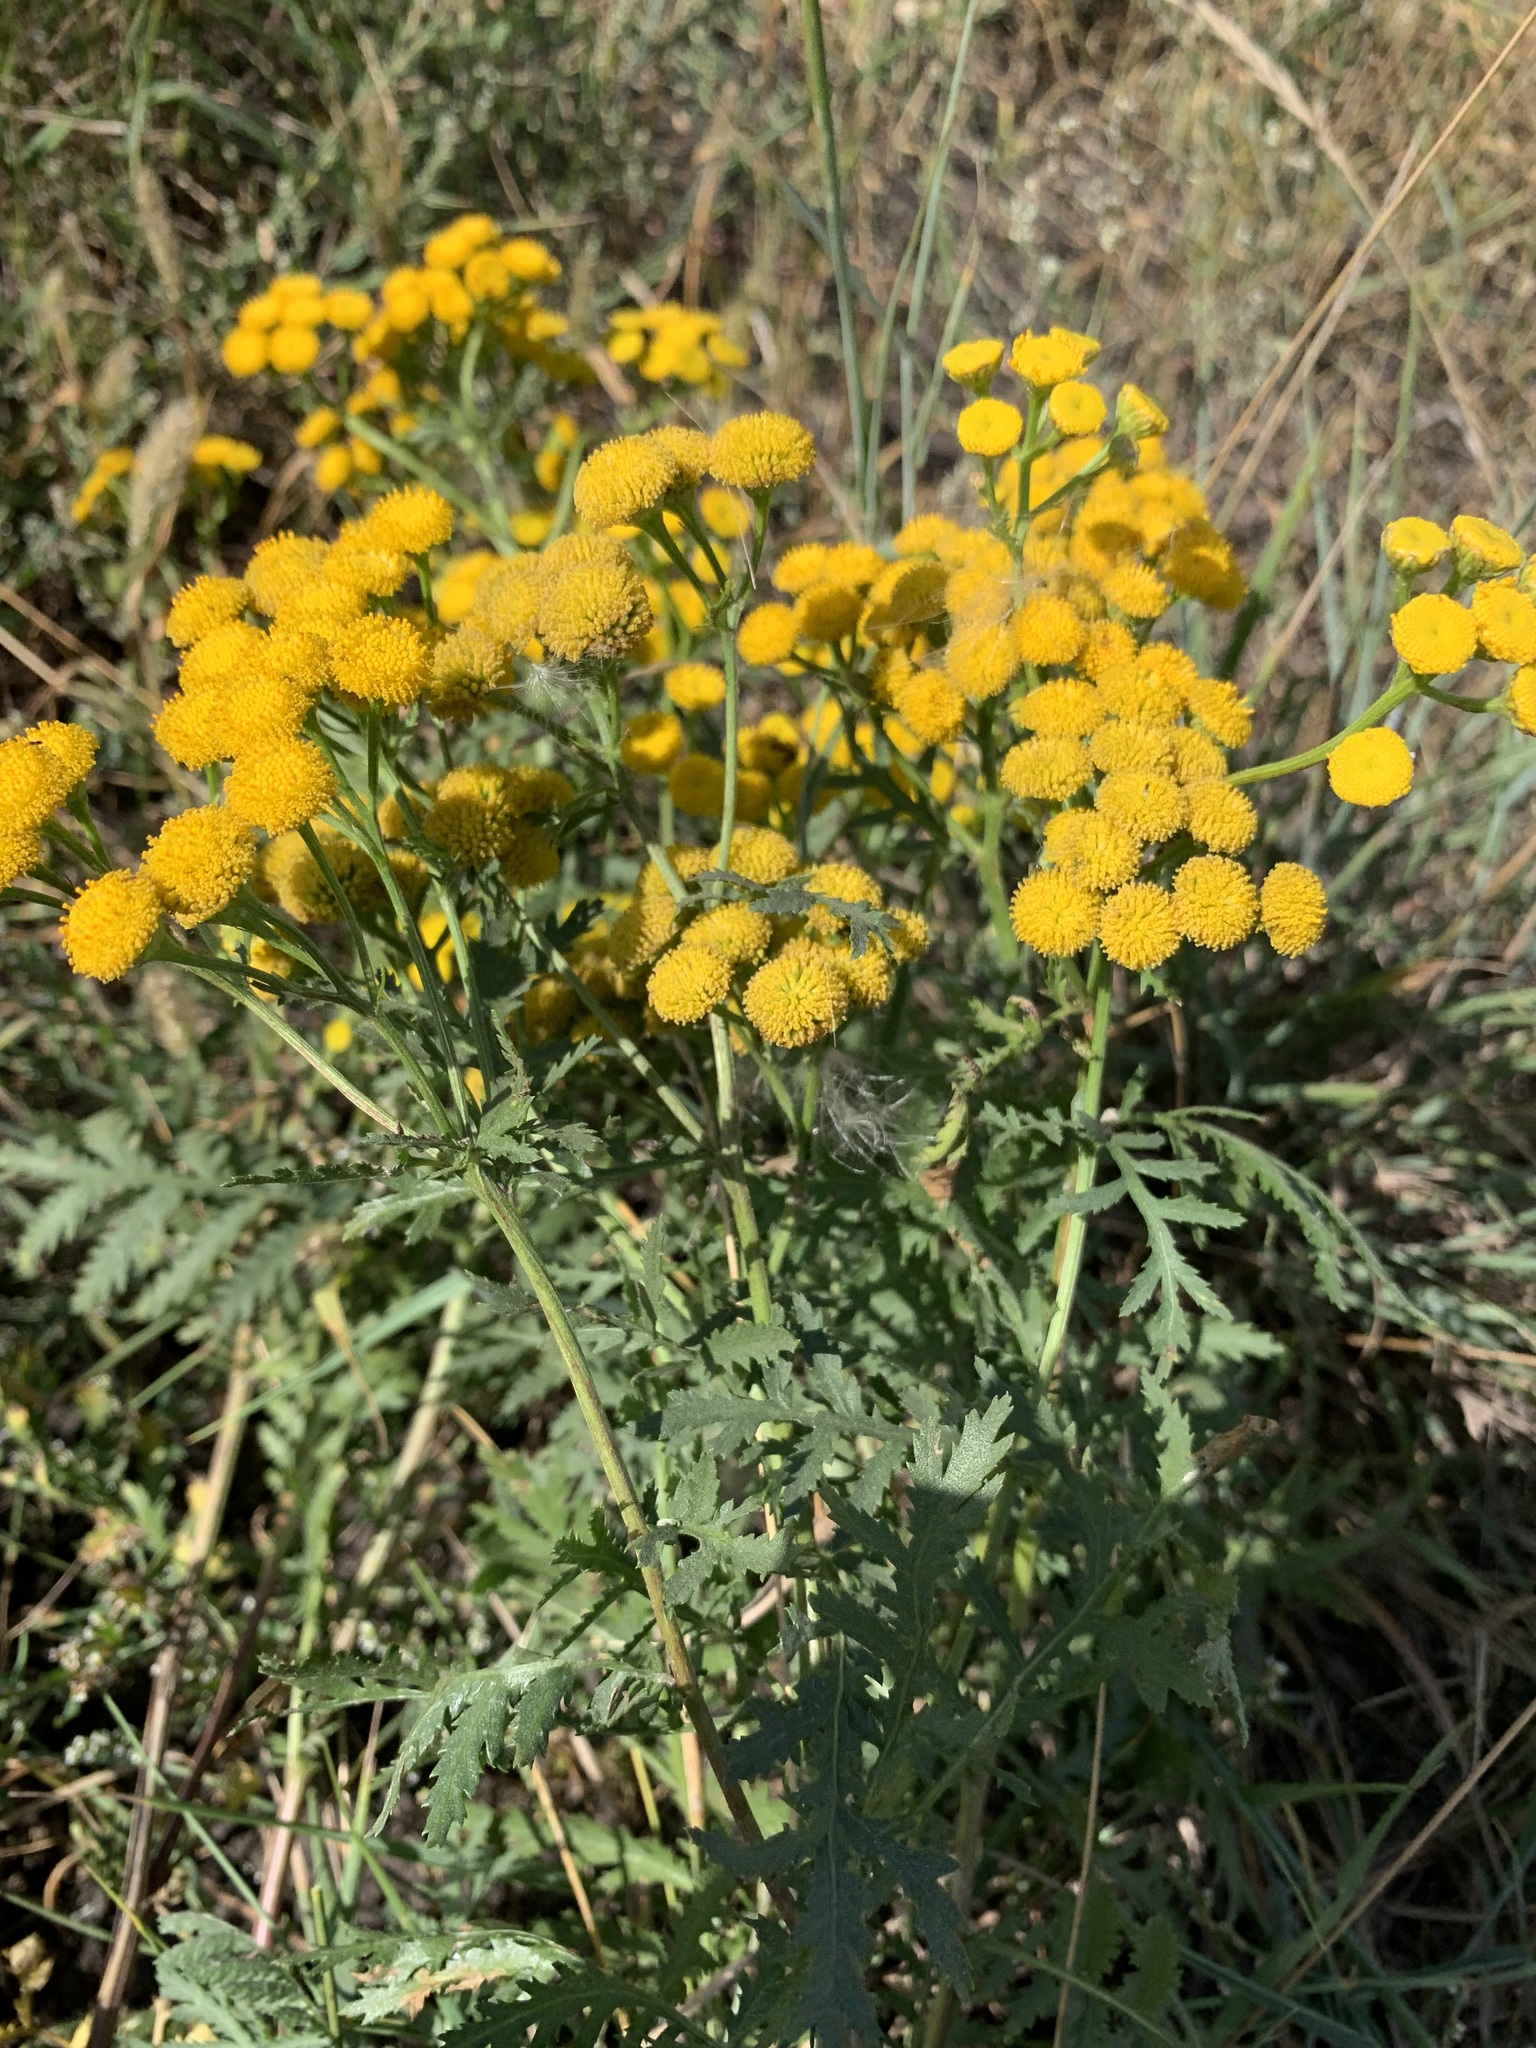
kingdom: Plantae
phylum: Tracheophyta
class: Magnoliopsida
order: Asterales
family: Asteraceae
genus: Tanacetum
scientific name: Tanacetum vulgare
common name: Common tansy
